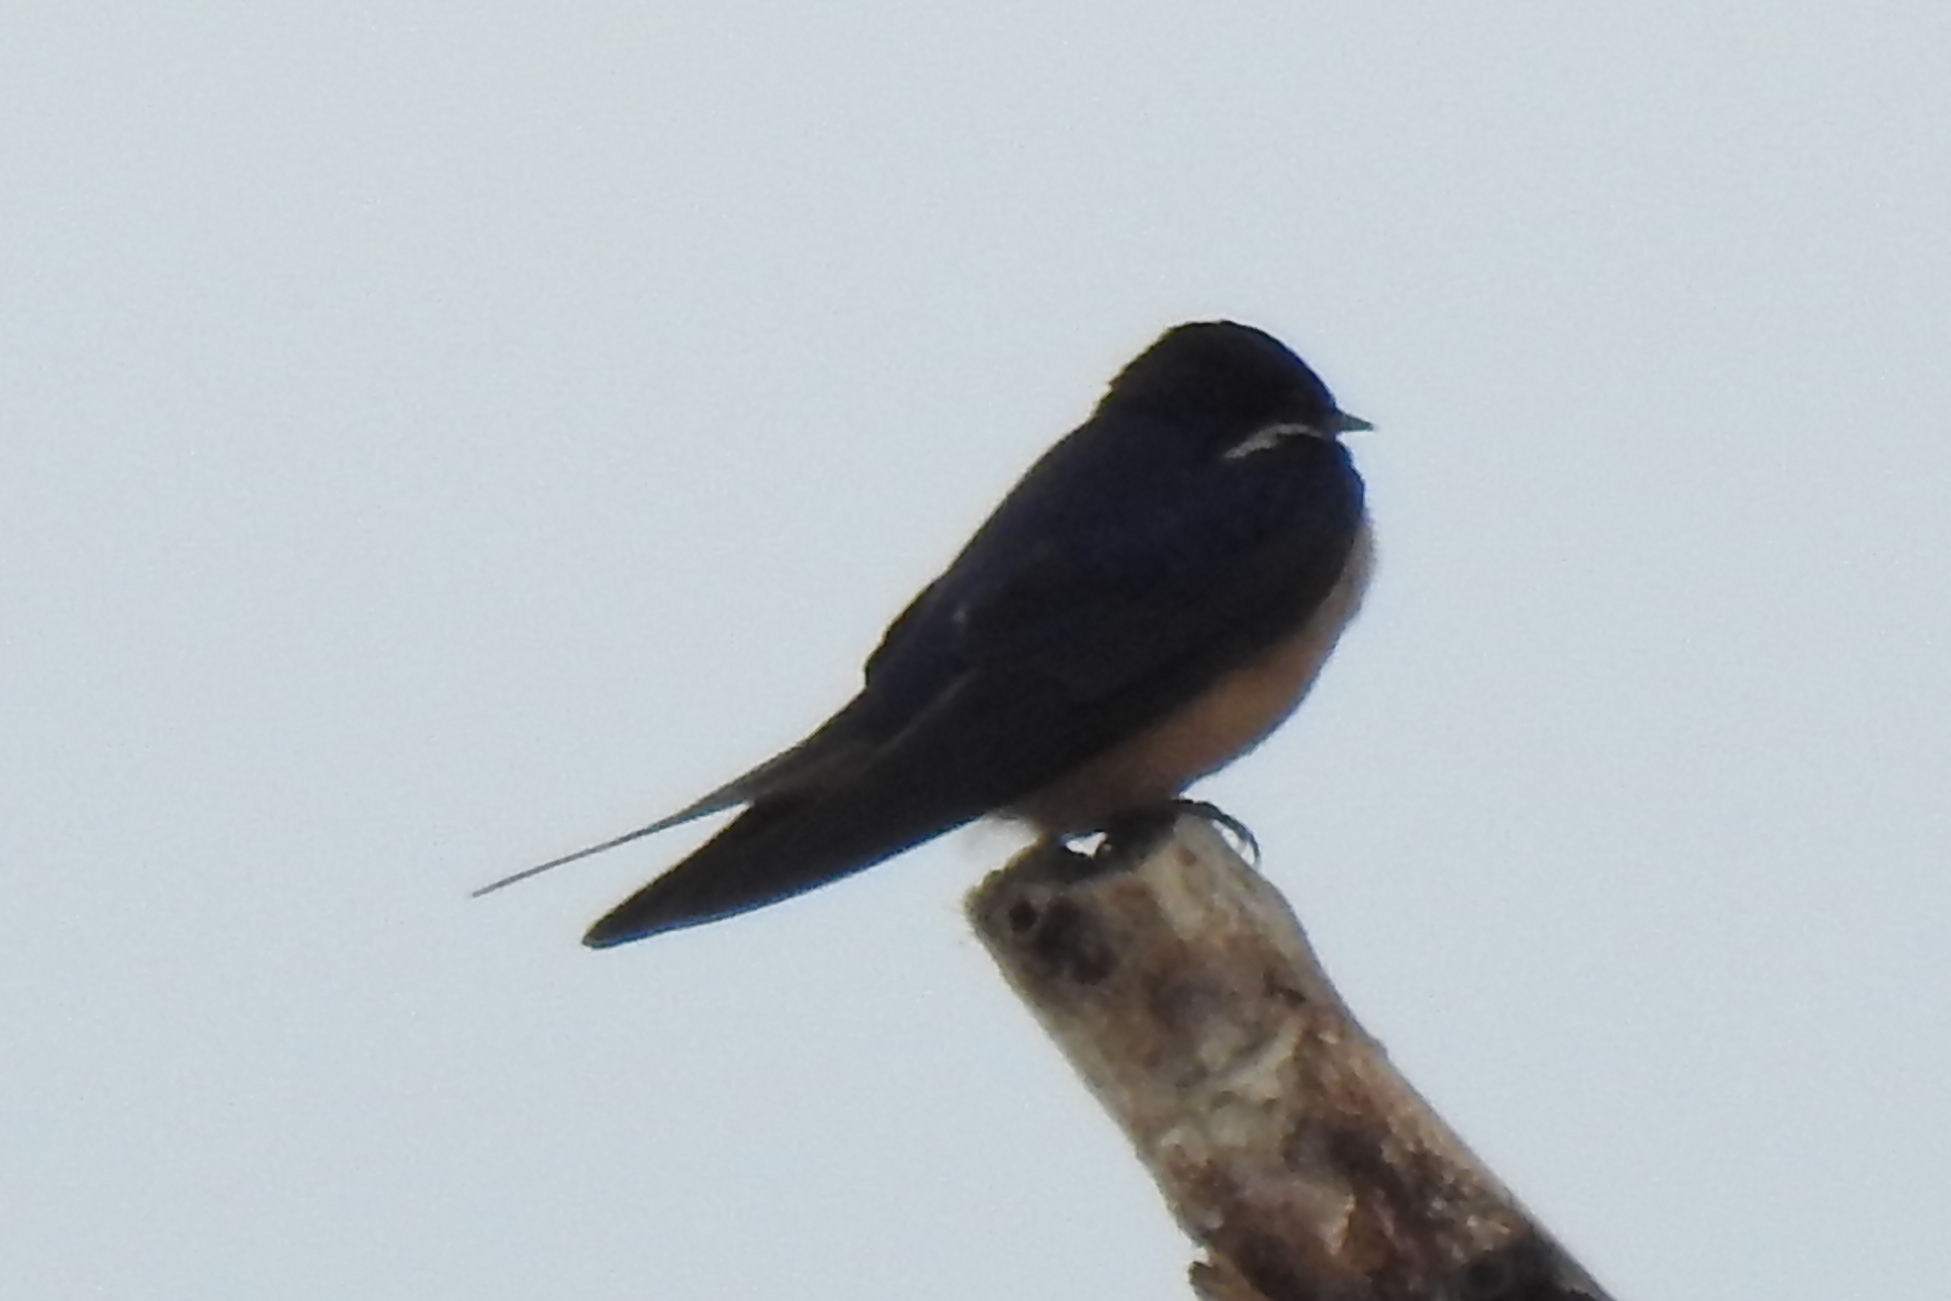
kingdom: Animalia
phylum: Chordata
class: Aves
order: Passeriformes
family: Hirundinidae
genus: Hirundo
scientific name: Hirundo rustica
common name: Barn swallow
